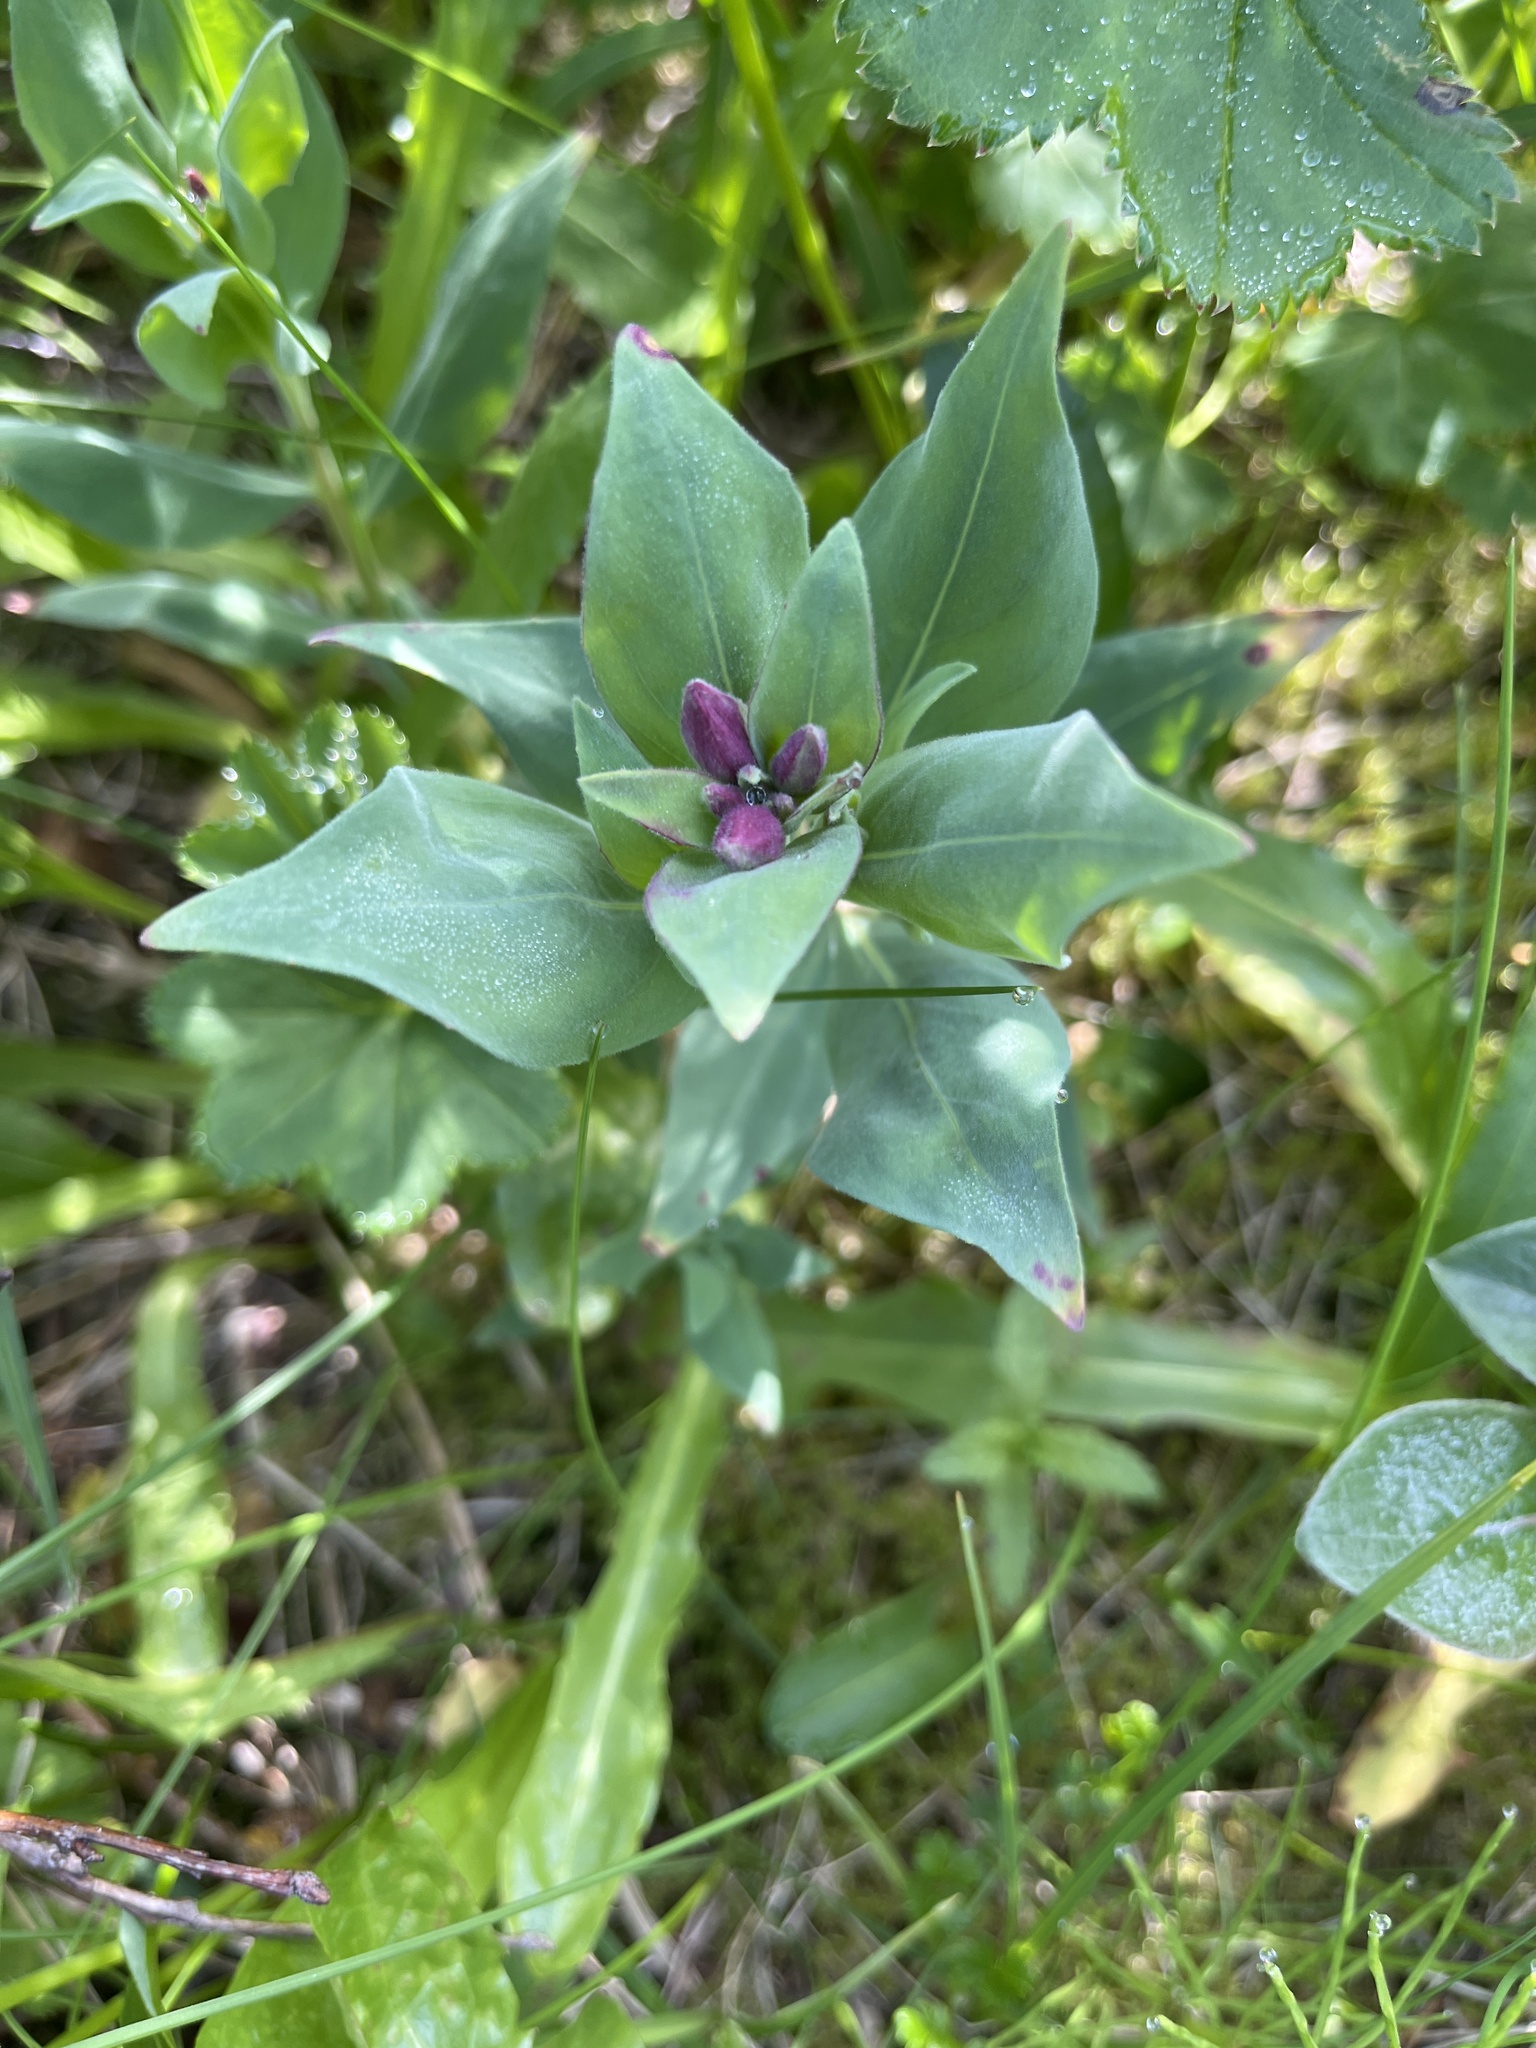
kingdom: Plantae
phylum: Tracheophyta
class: Magnoliopsida
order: Myrtales
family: Onagraceae
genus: Chamaenerion
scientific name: Chamaenerion latifolium
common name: Dwarf fireweed
